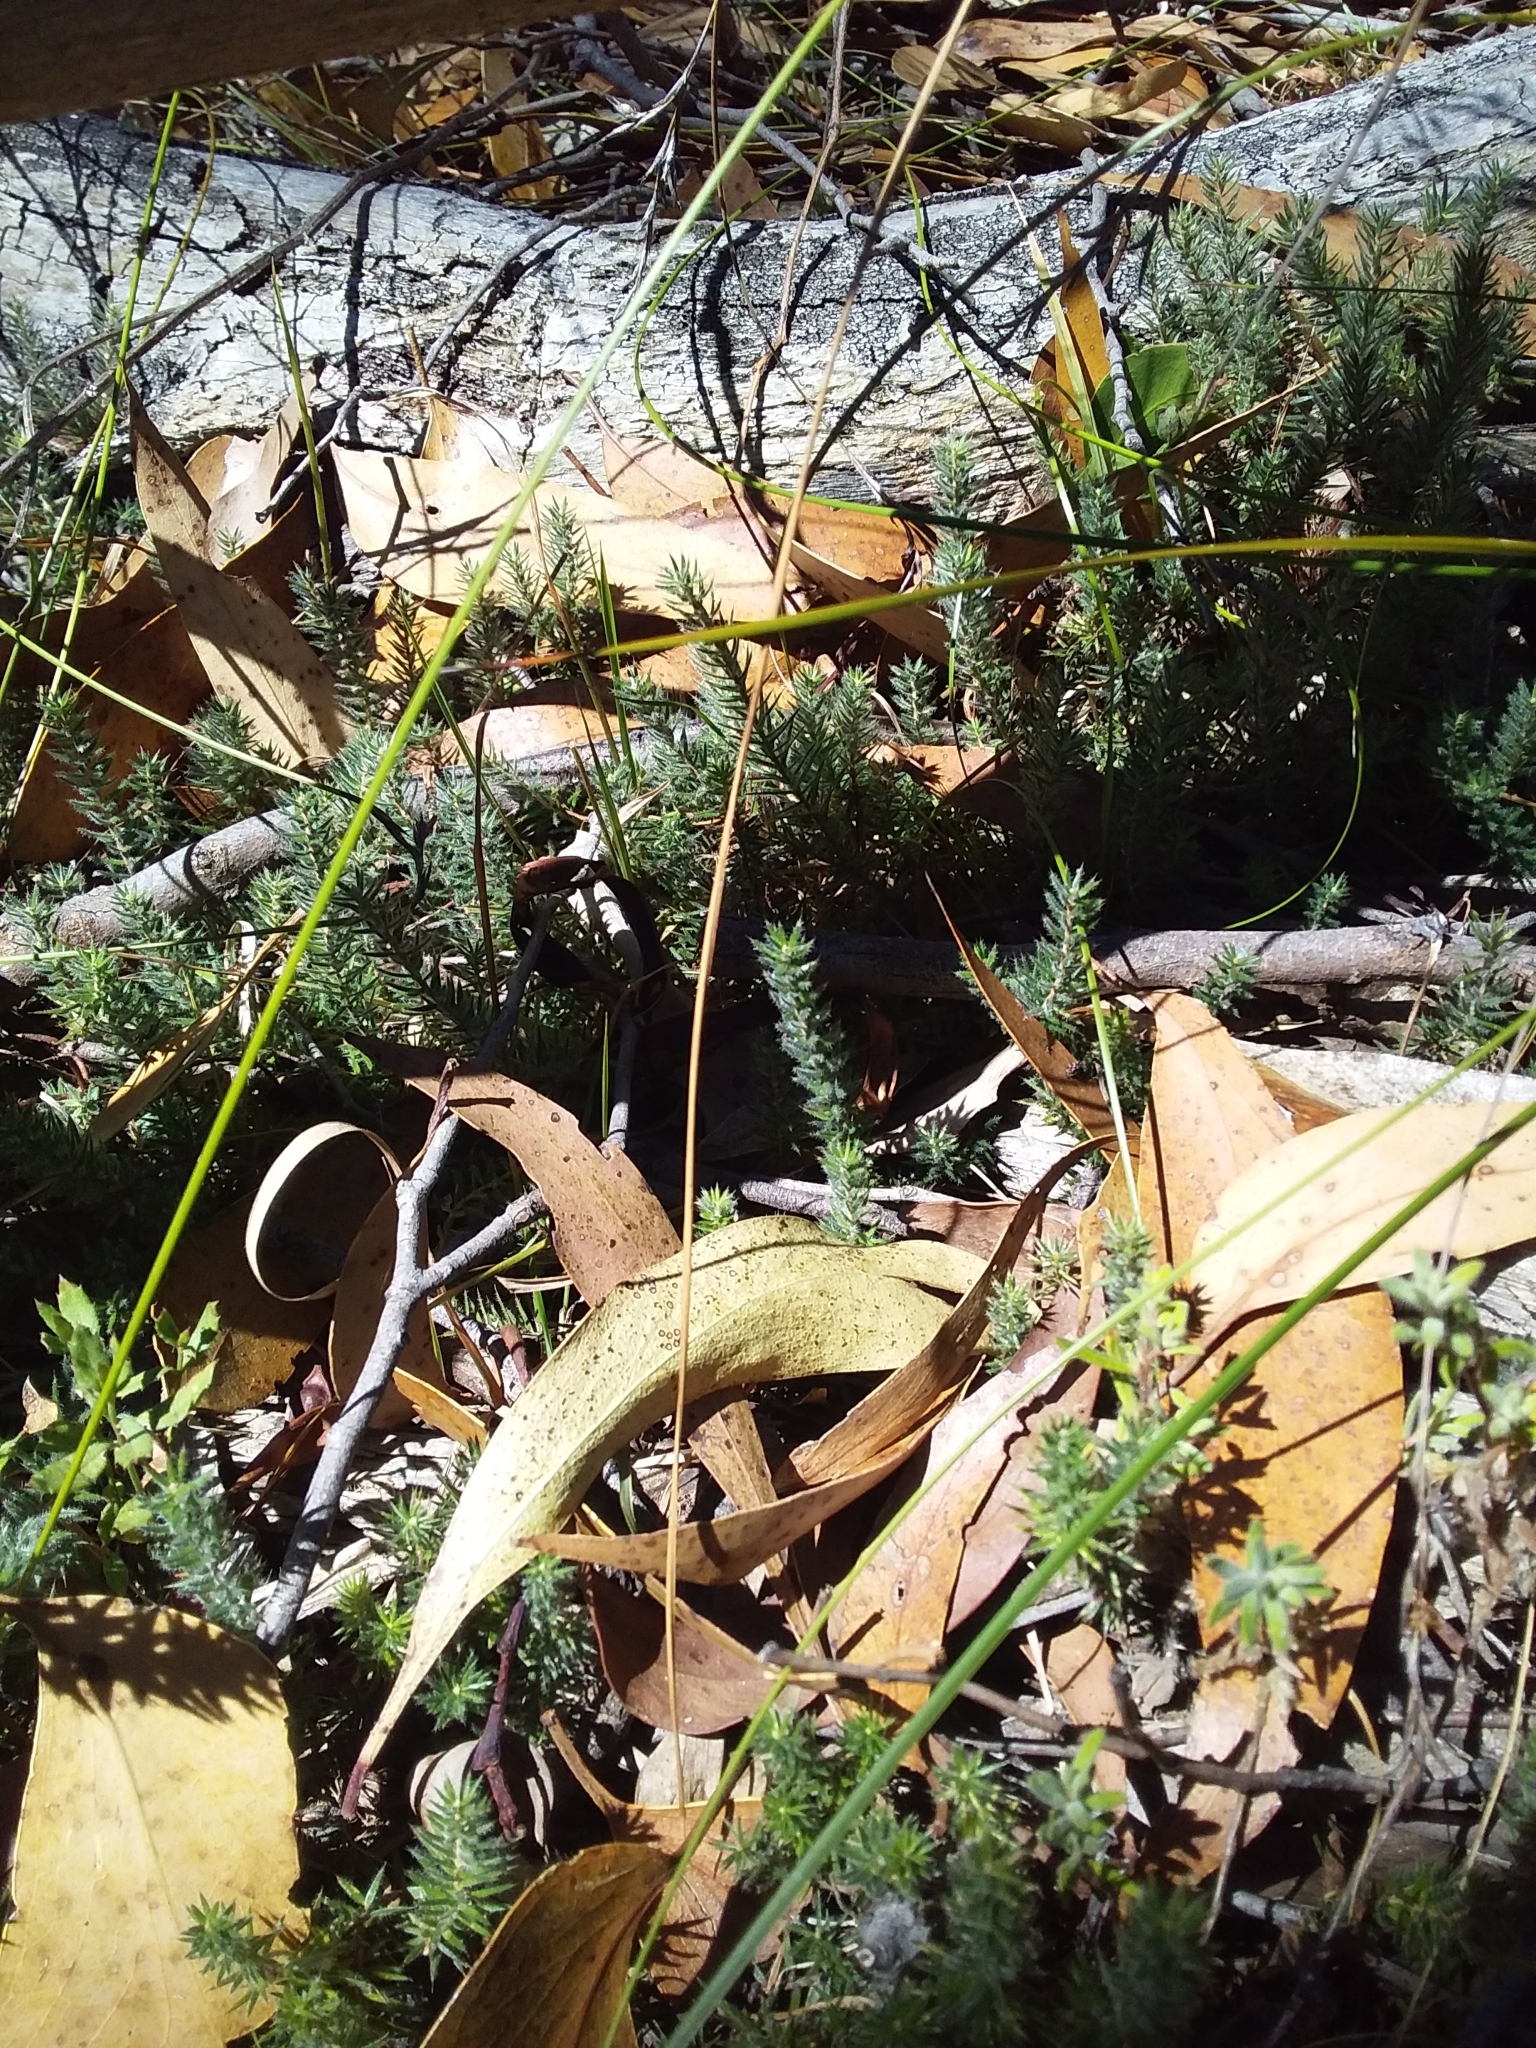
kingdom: Plantae
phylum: Tracheophyta
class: Magnoliopsida
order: Ericales
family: Ericaceae
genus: Acrotriche
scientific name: Acrotriche serrulata
